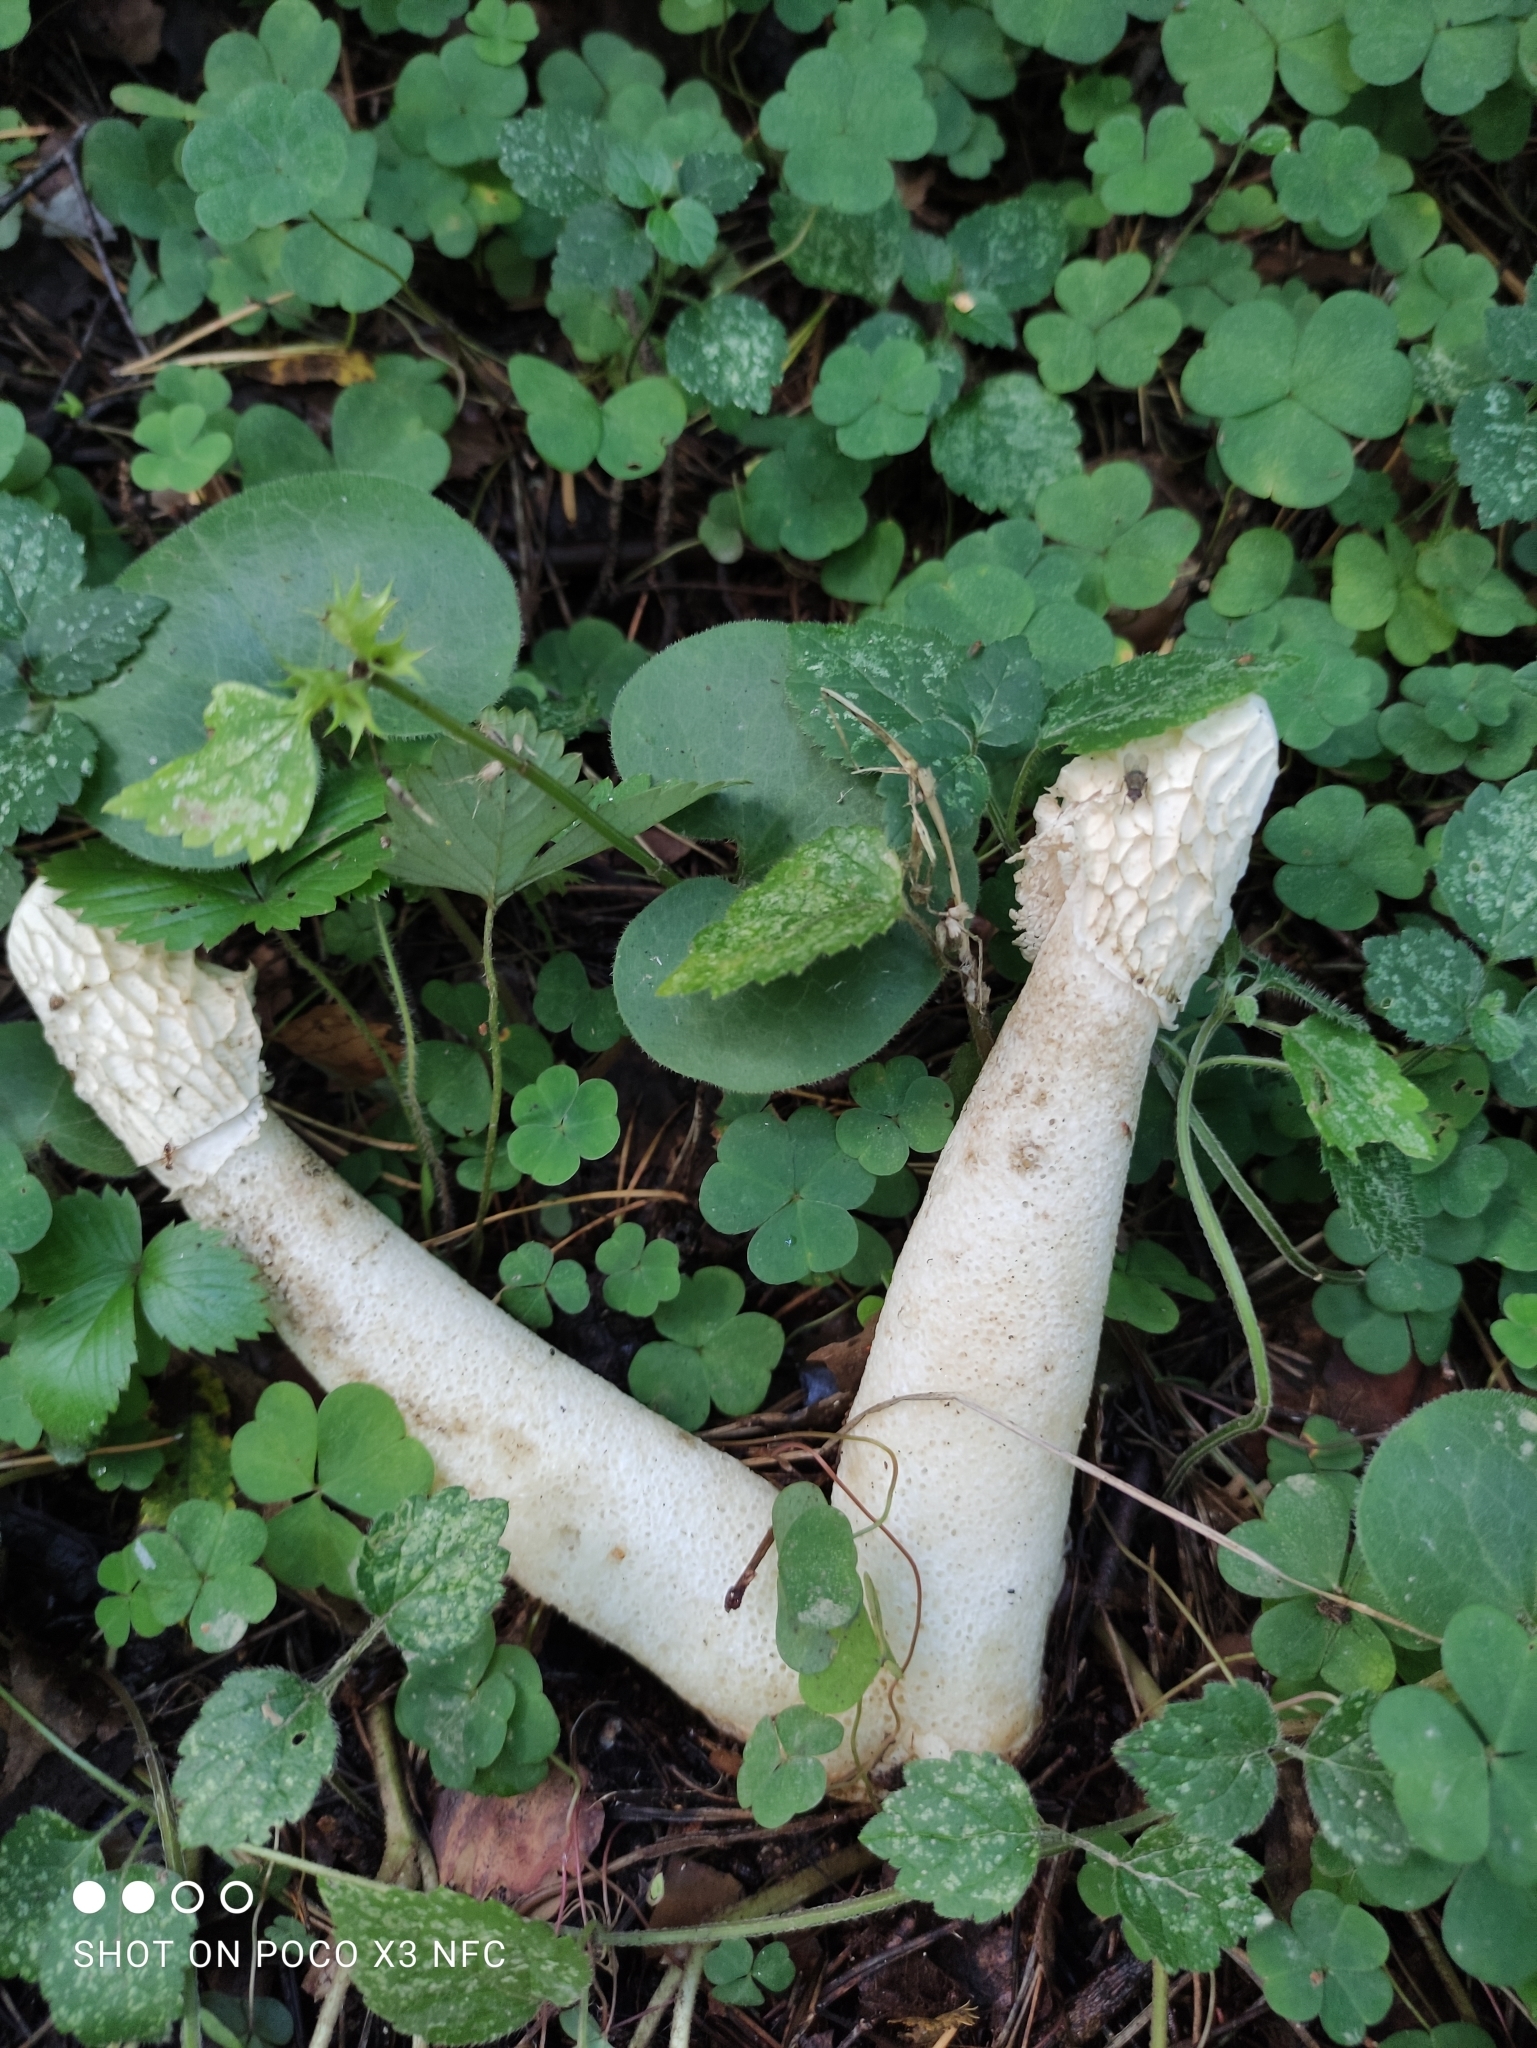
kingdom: Fungi
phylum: Basidiomycota
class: Agaricomycetes
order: Phallales
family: Phallaceae
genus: Phallus
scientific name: Phallus impudicus
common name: Common stinkhorn
